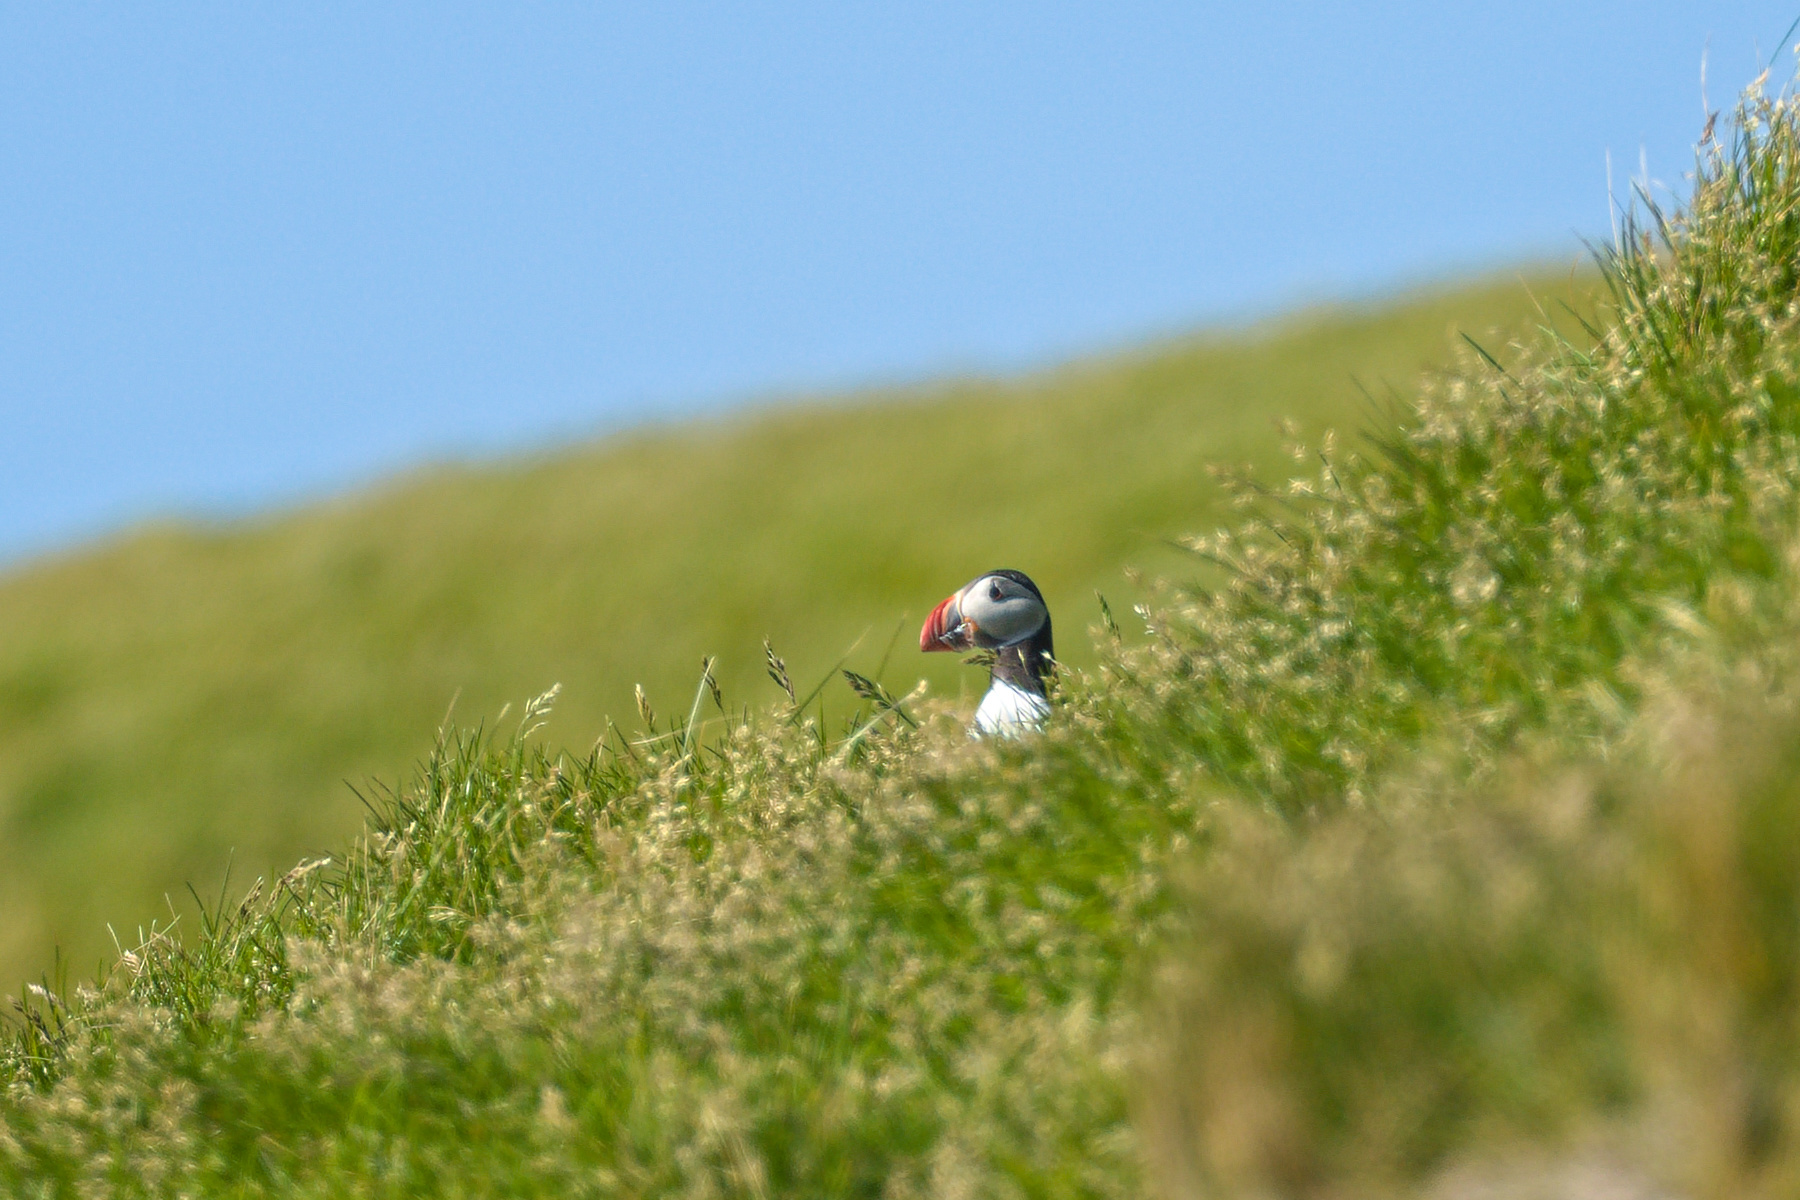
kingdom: Animalia
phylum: Chordata
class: Aves
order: Charadriiformes
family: Alcidae
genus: Fratercula
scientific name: Fratercula arctica
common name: Atlantic puffin
